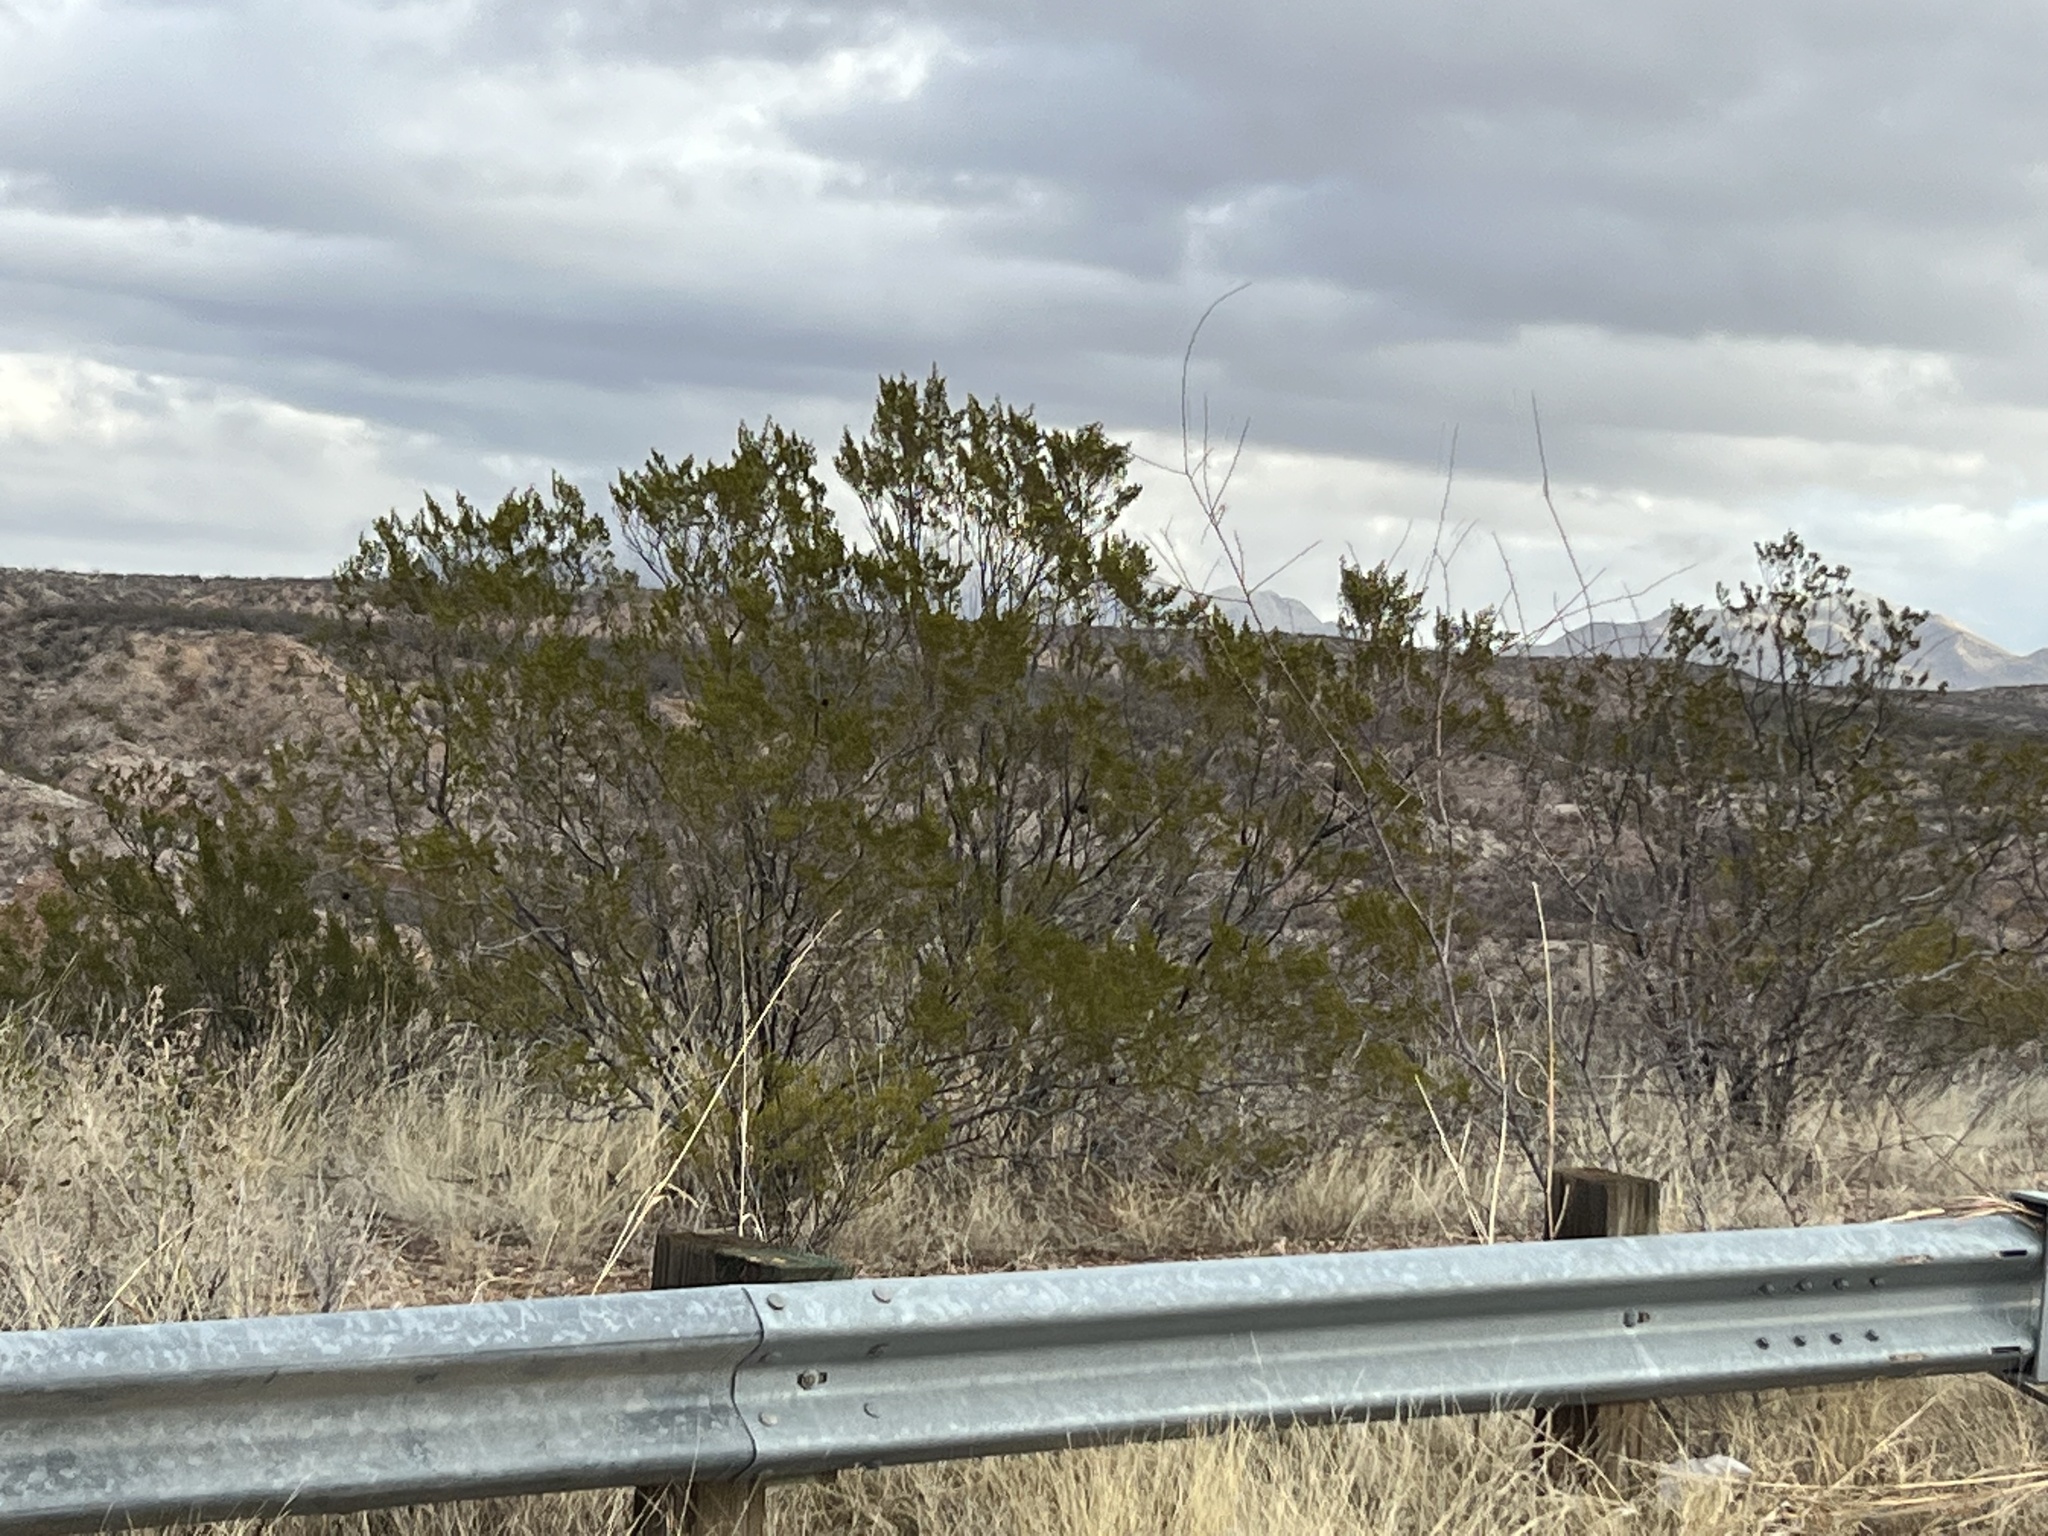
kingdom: Plantae
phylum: Tracheophyta
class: Magnoliopsida
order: Zygophyllales
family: Zygophyllaceae
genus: Larrea
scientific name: Larrea tridentata
